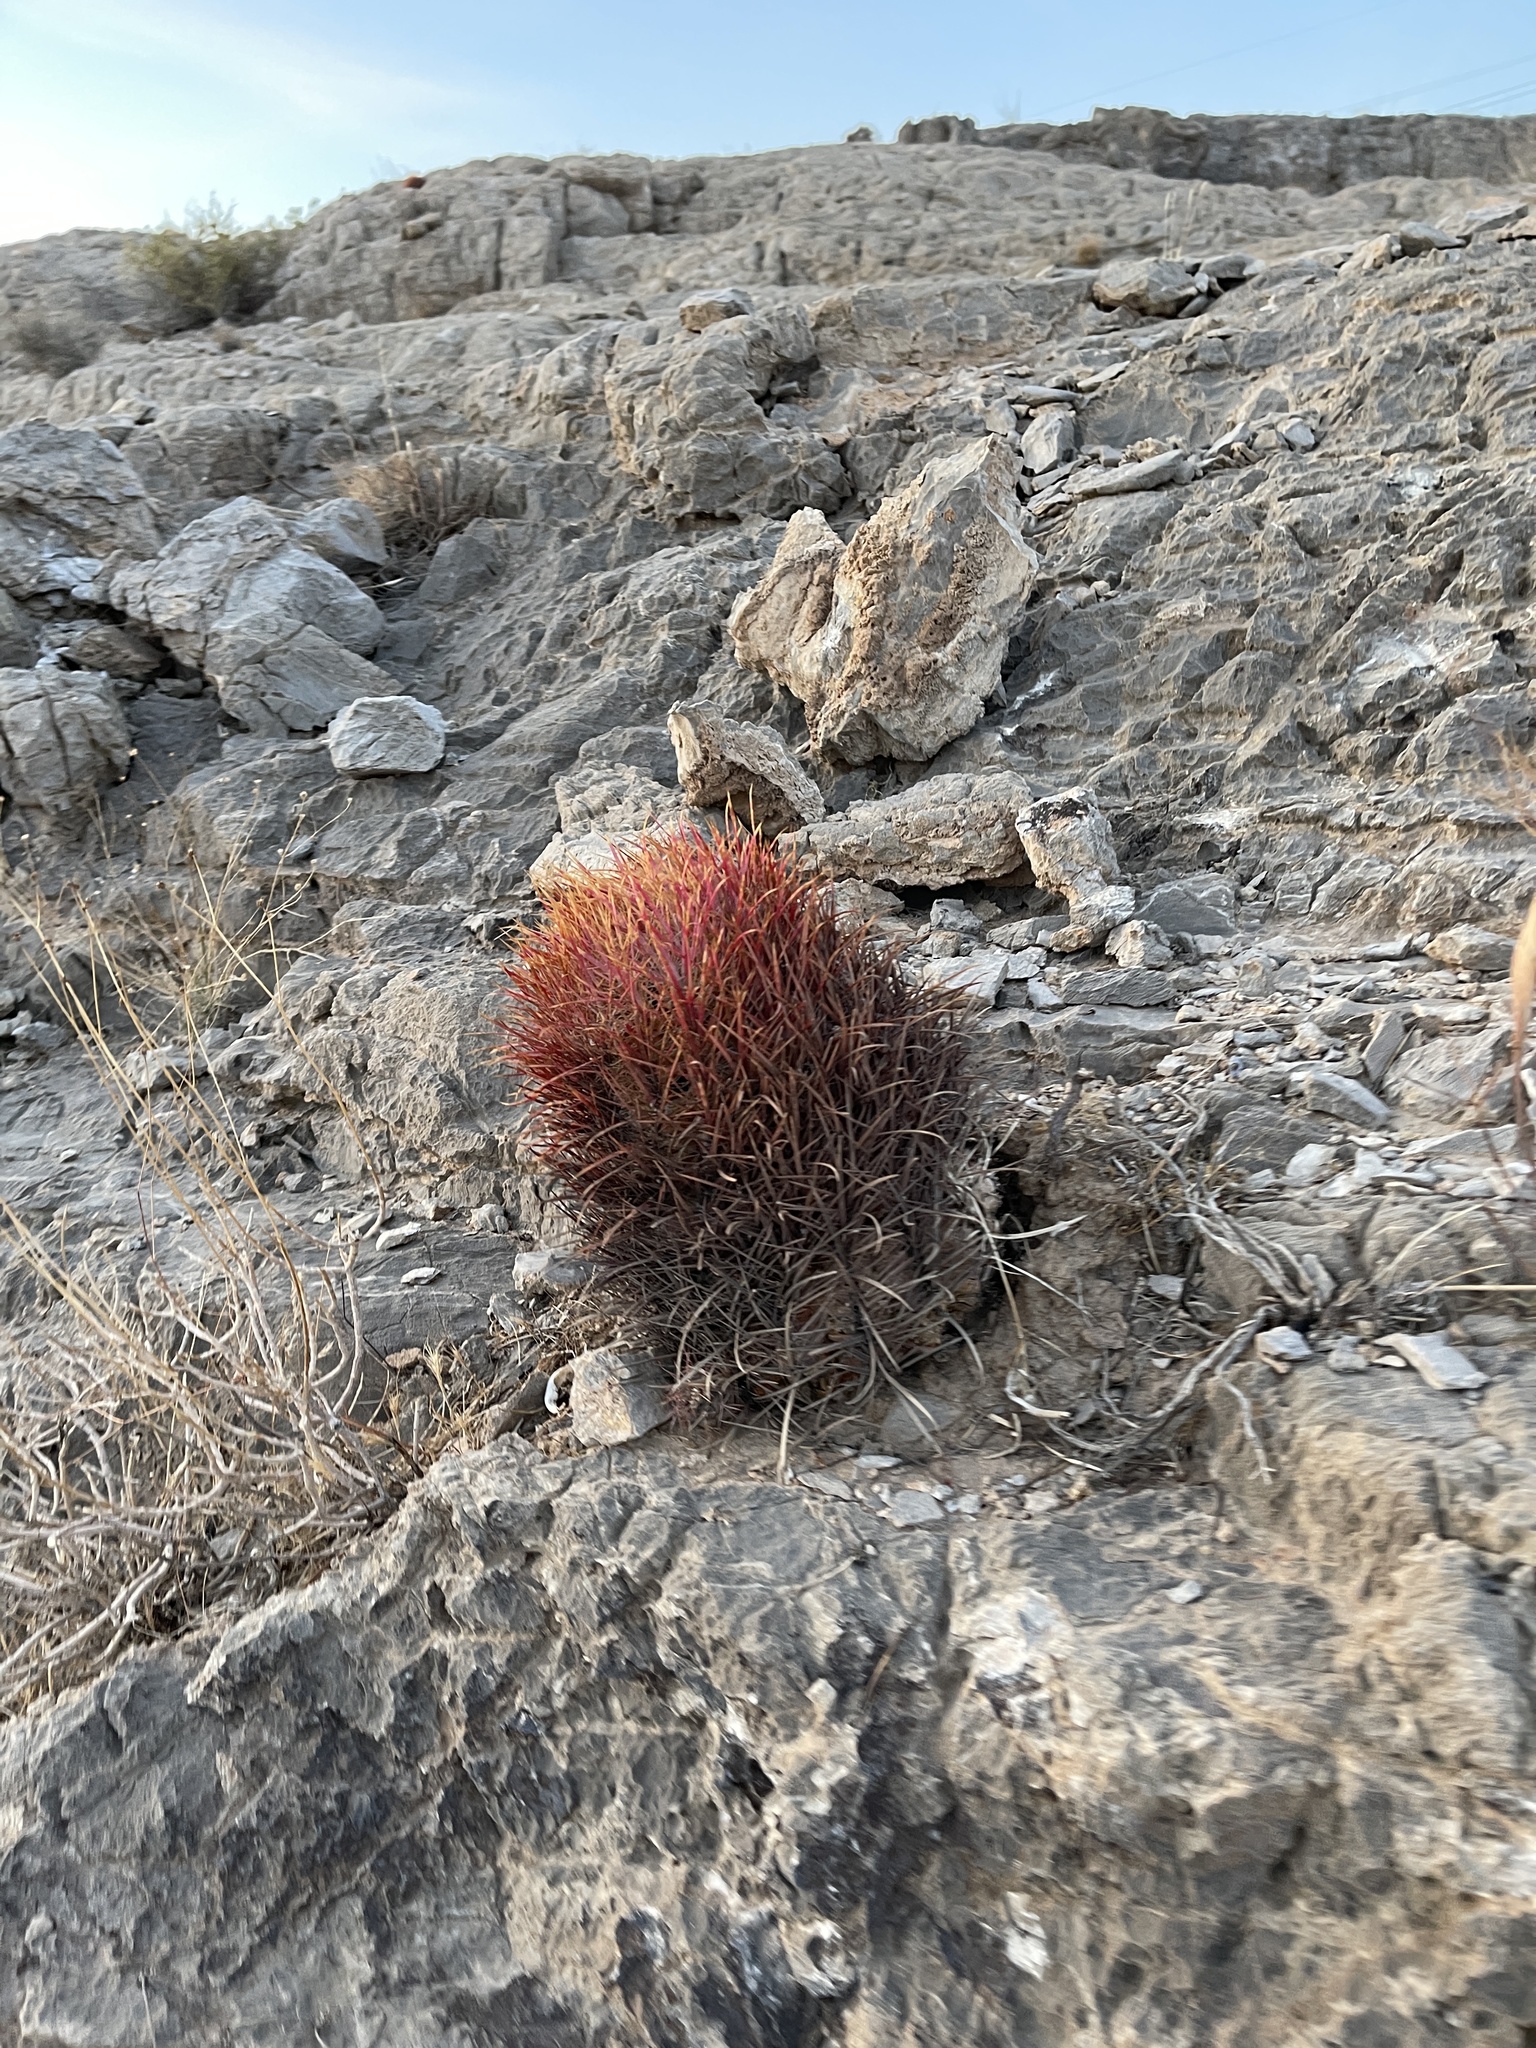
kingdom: Plantae
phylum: Tracheophyta
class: Magnoliopsida
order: Caryophyllales
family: Cactaceae
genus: Ferocactus
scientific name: Ferocactus cylindraceus
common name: California barrel cactus
